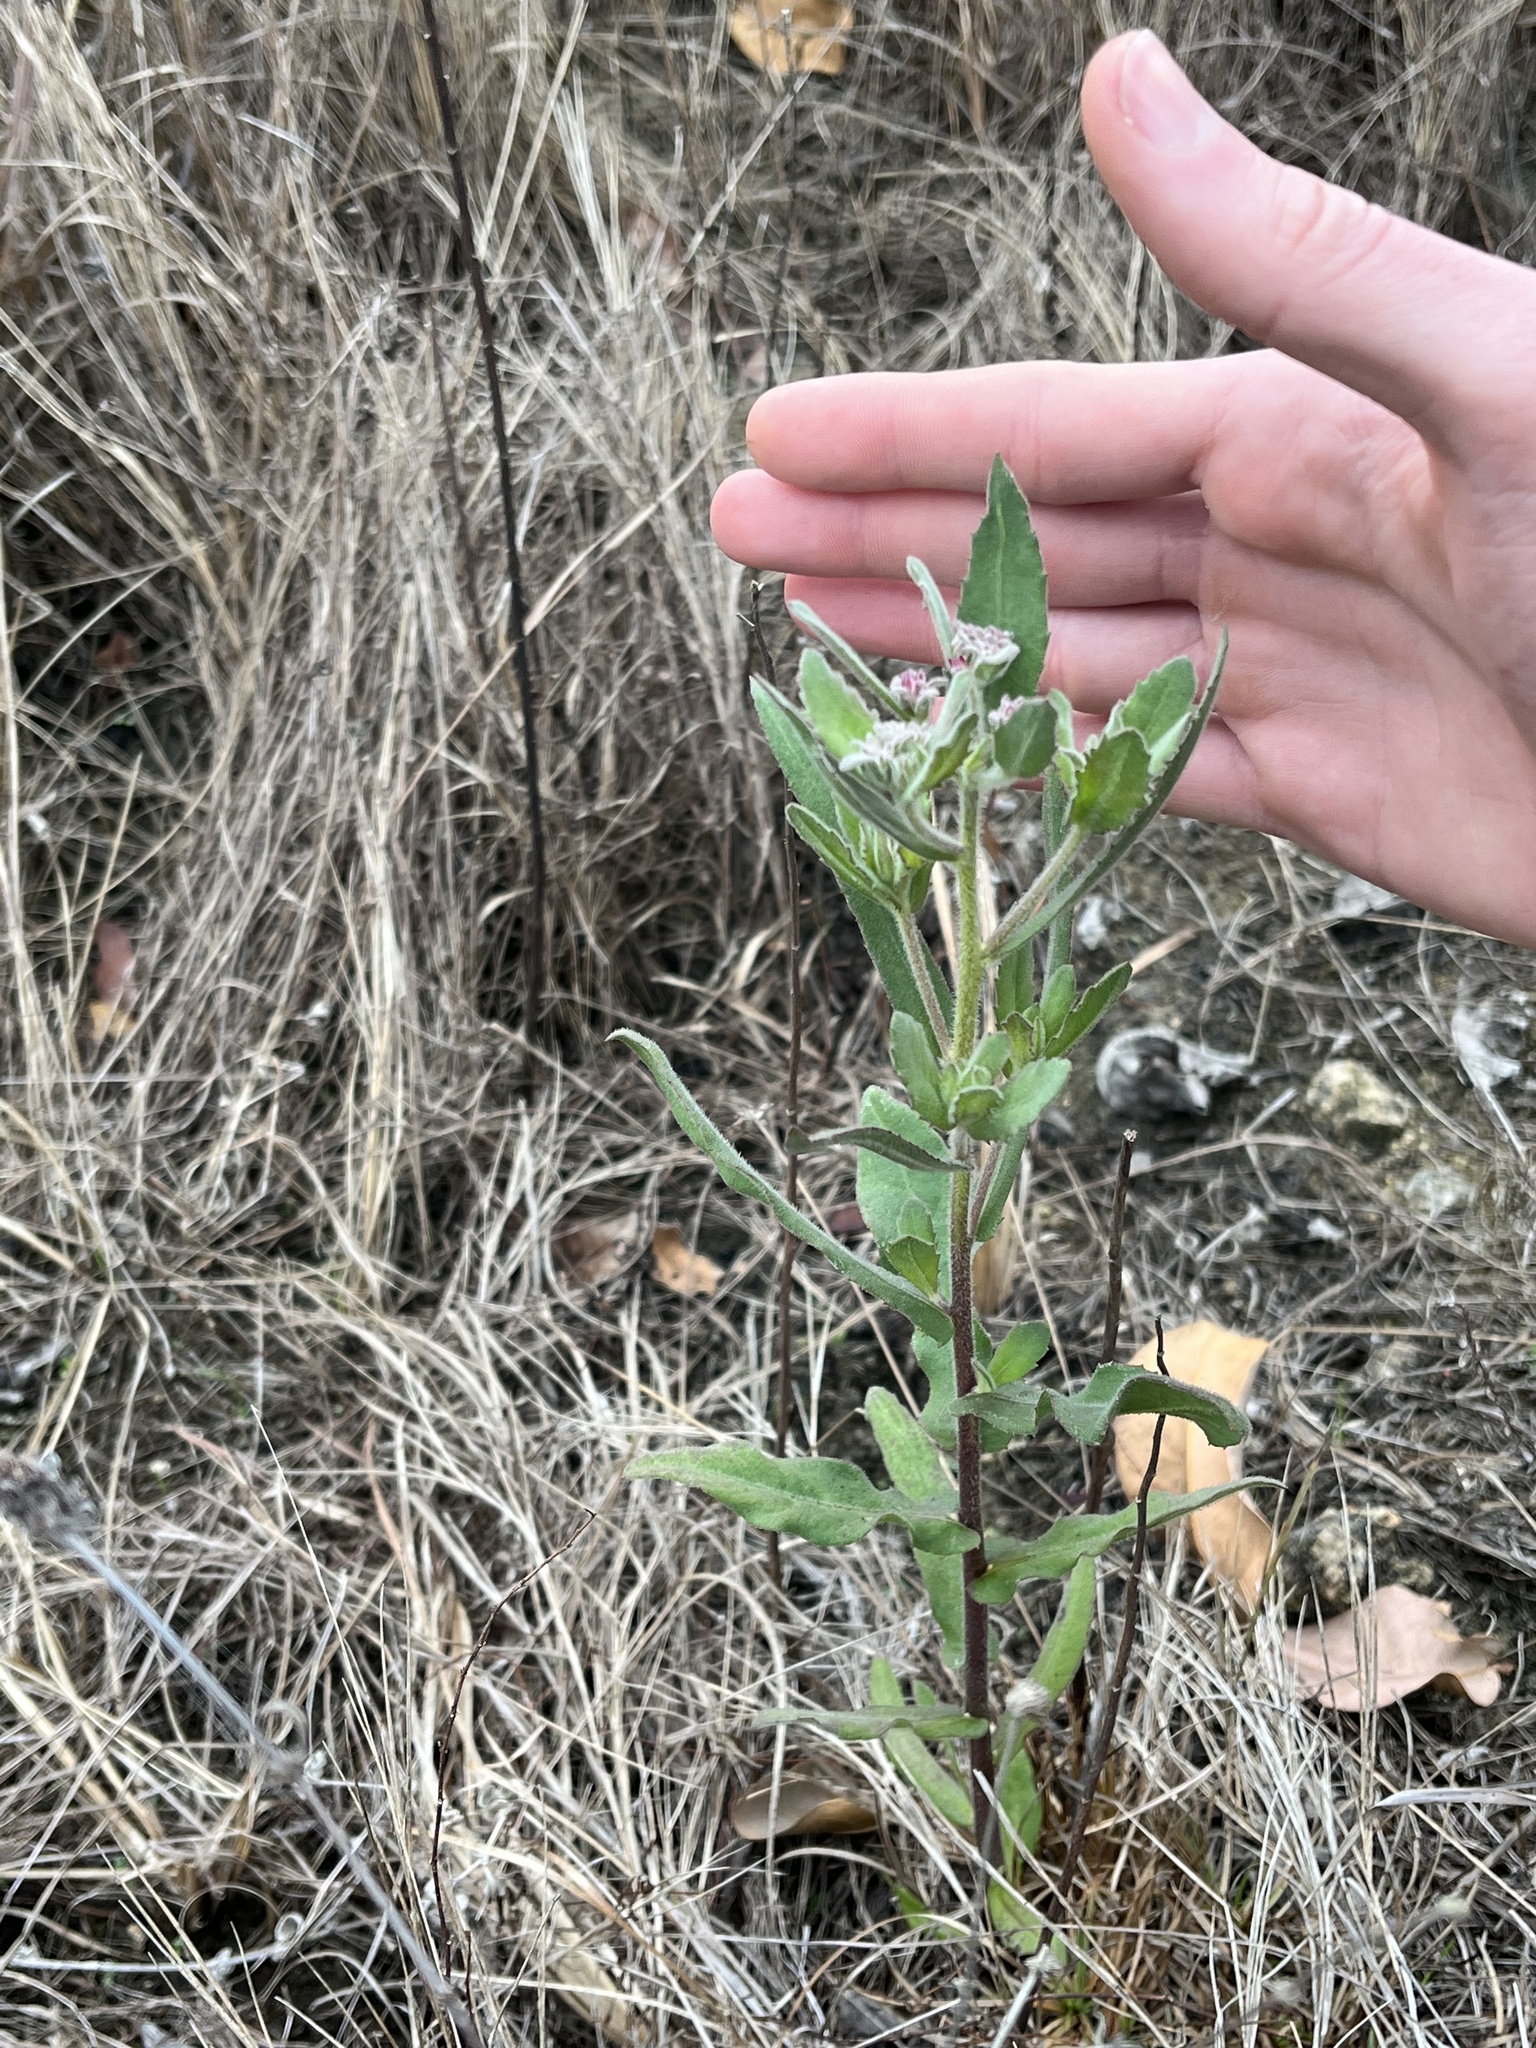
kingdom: Plantae
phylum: Tracheophyta
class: Magnoliopsida
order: Asterales
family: Asteraceae
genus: Pluchea
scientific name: Pluchea baccharis
